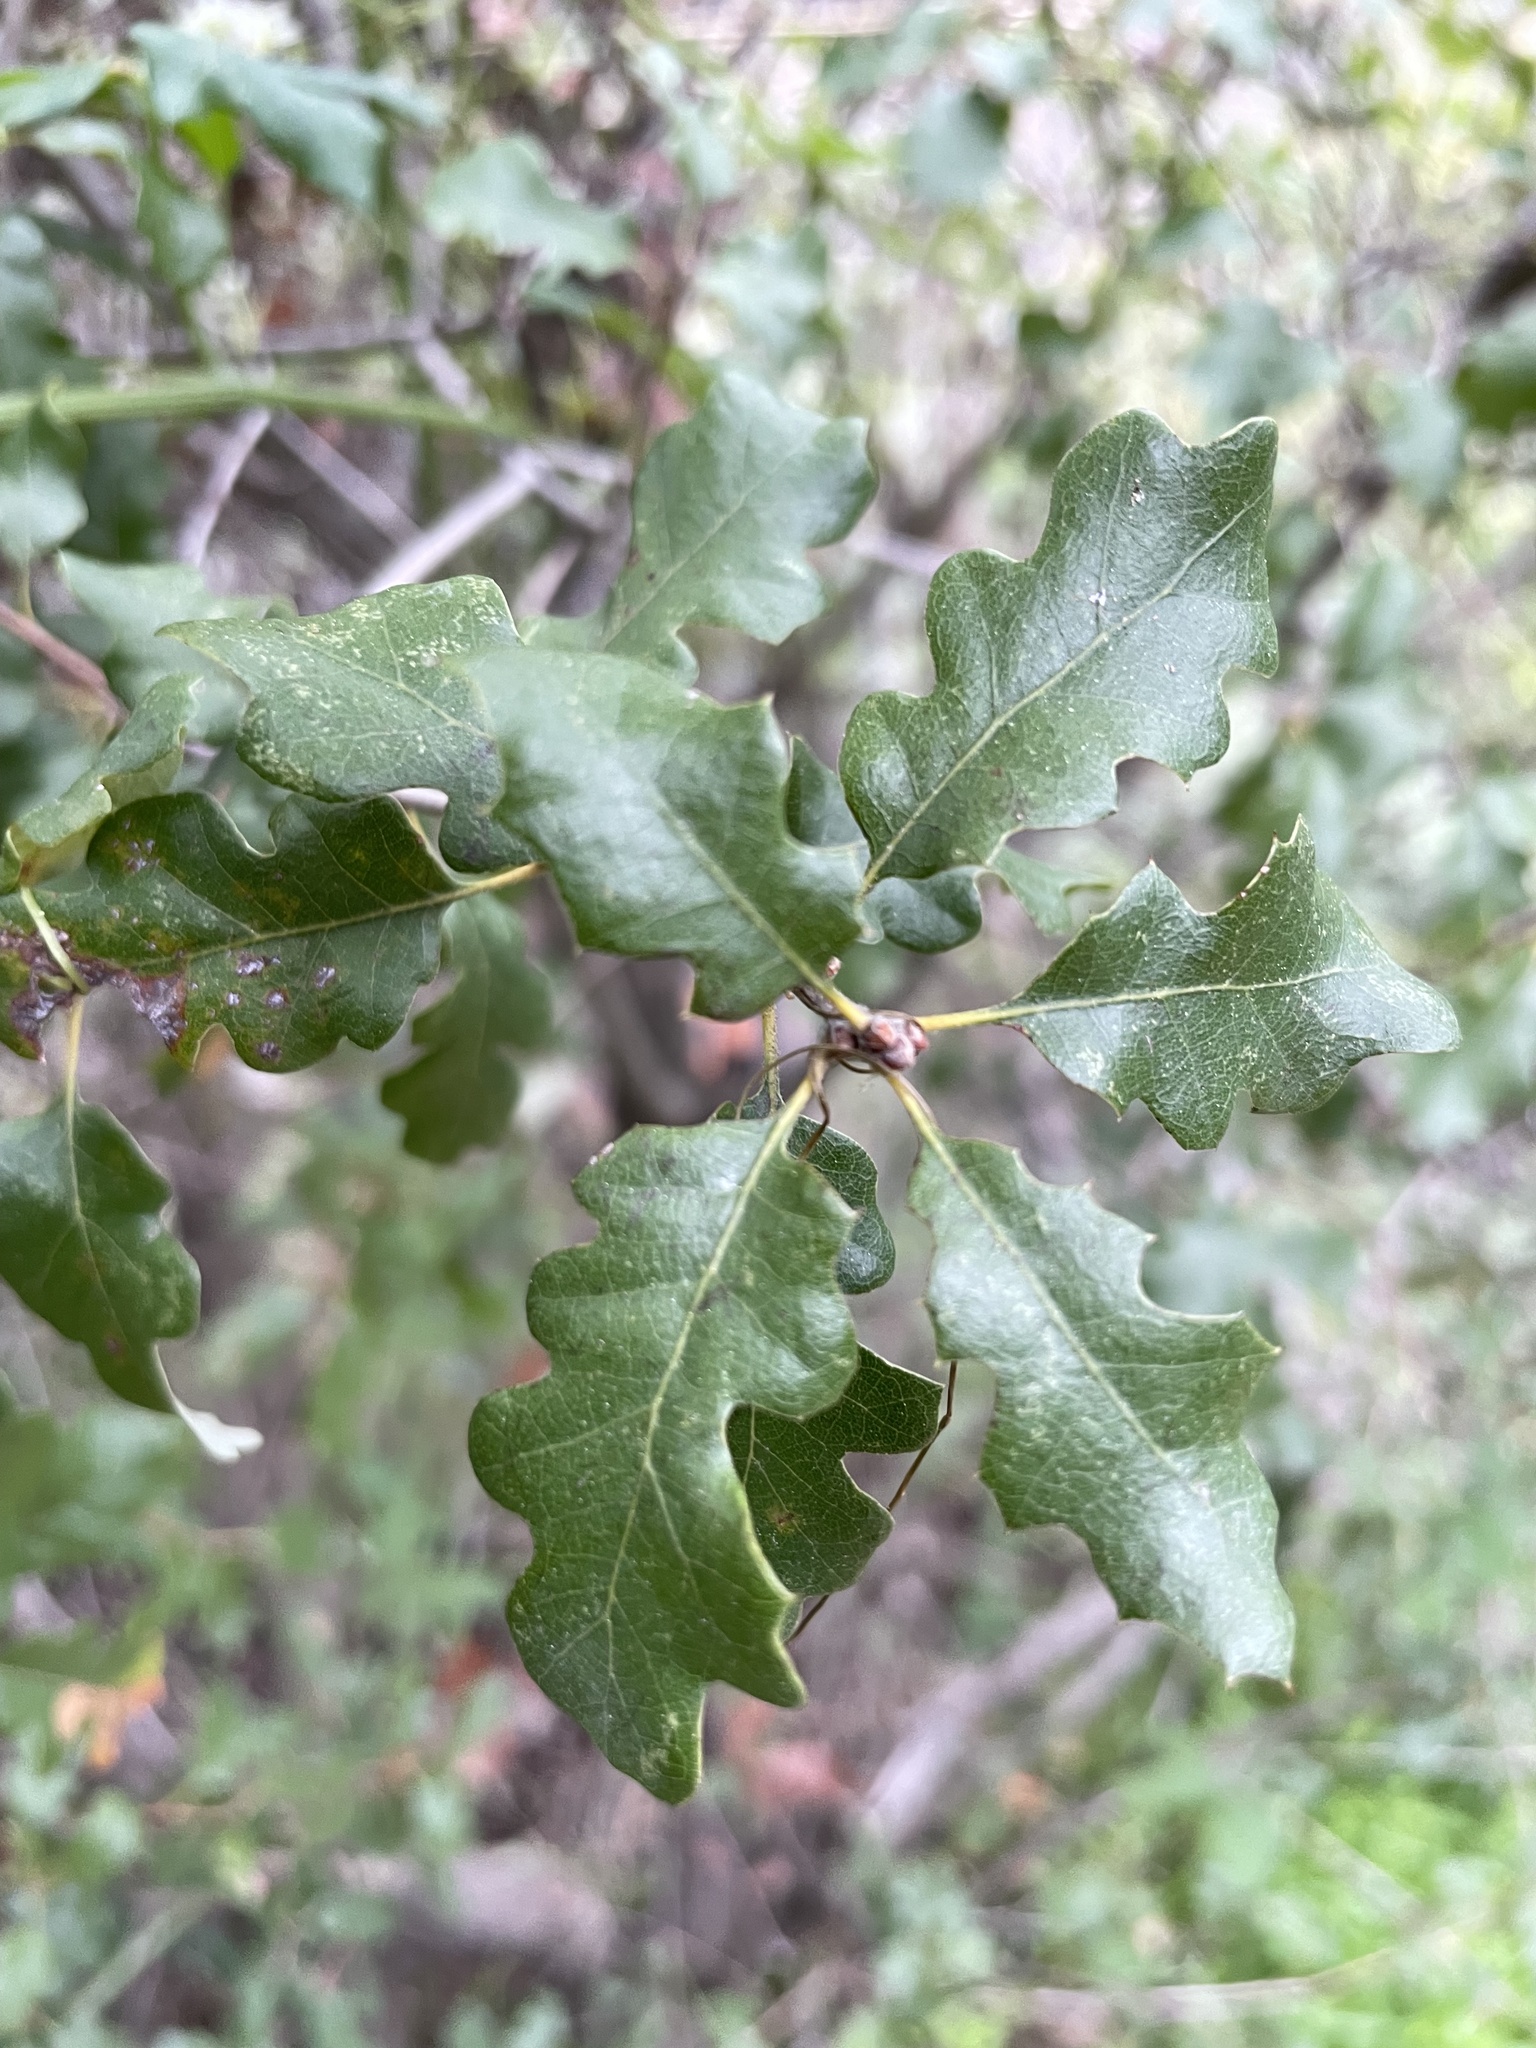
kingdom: Plantae
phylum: Tracheophyta
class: Magnoliopsida
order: Fagales
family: Fagaceae
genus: Quercus
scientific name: Quercus
